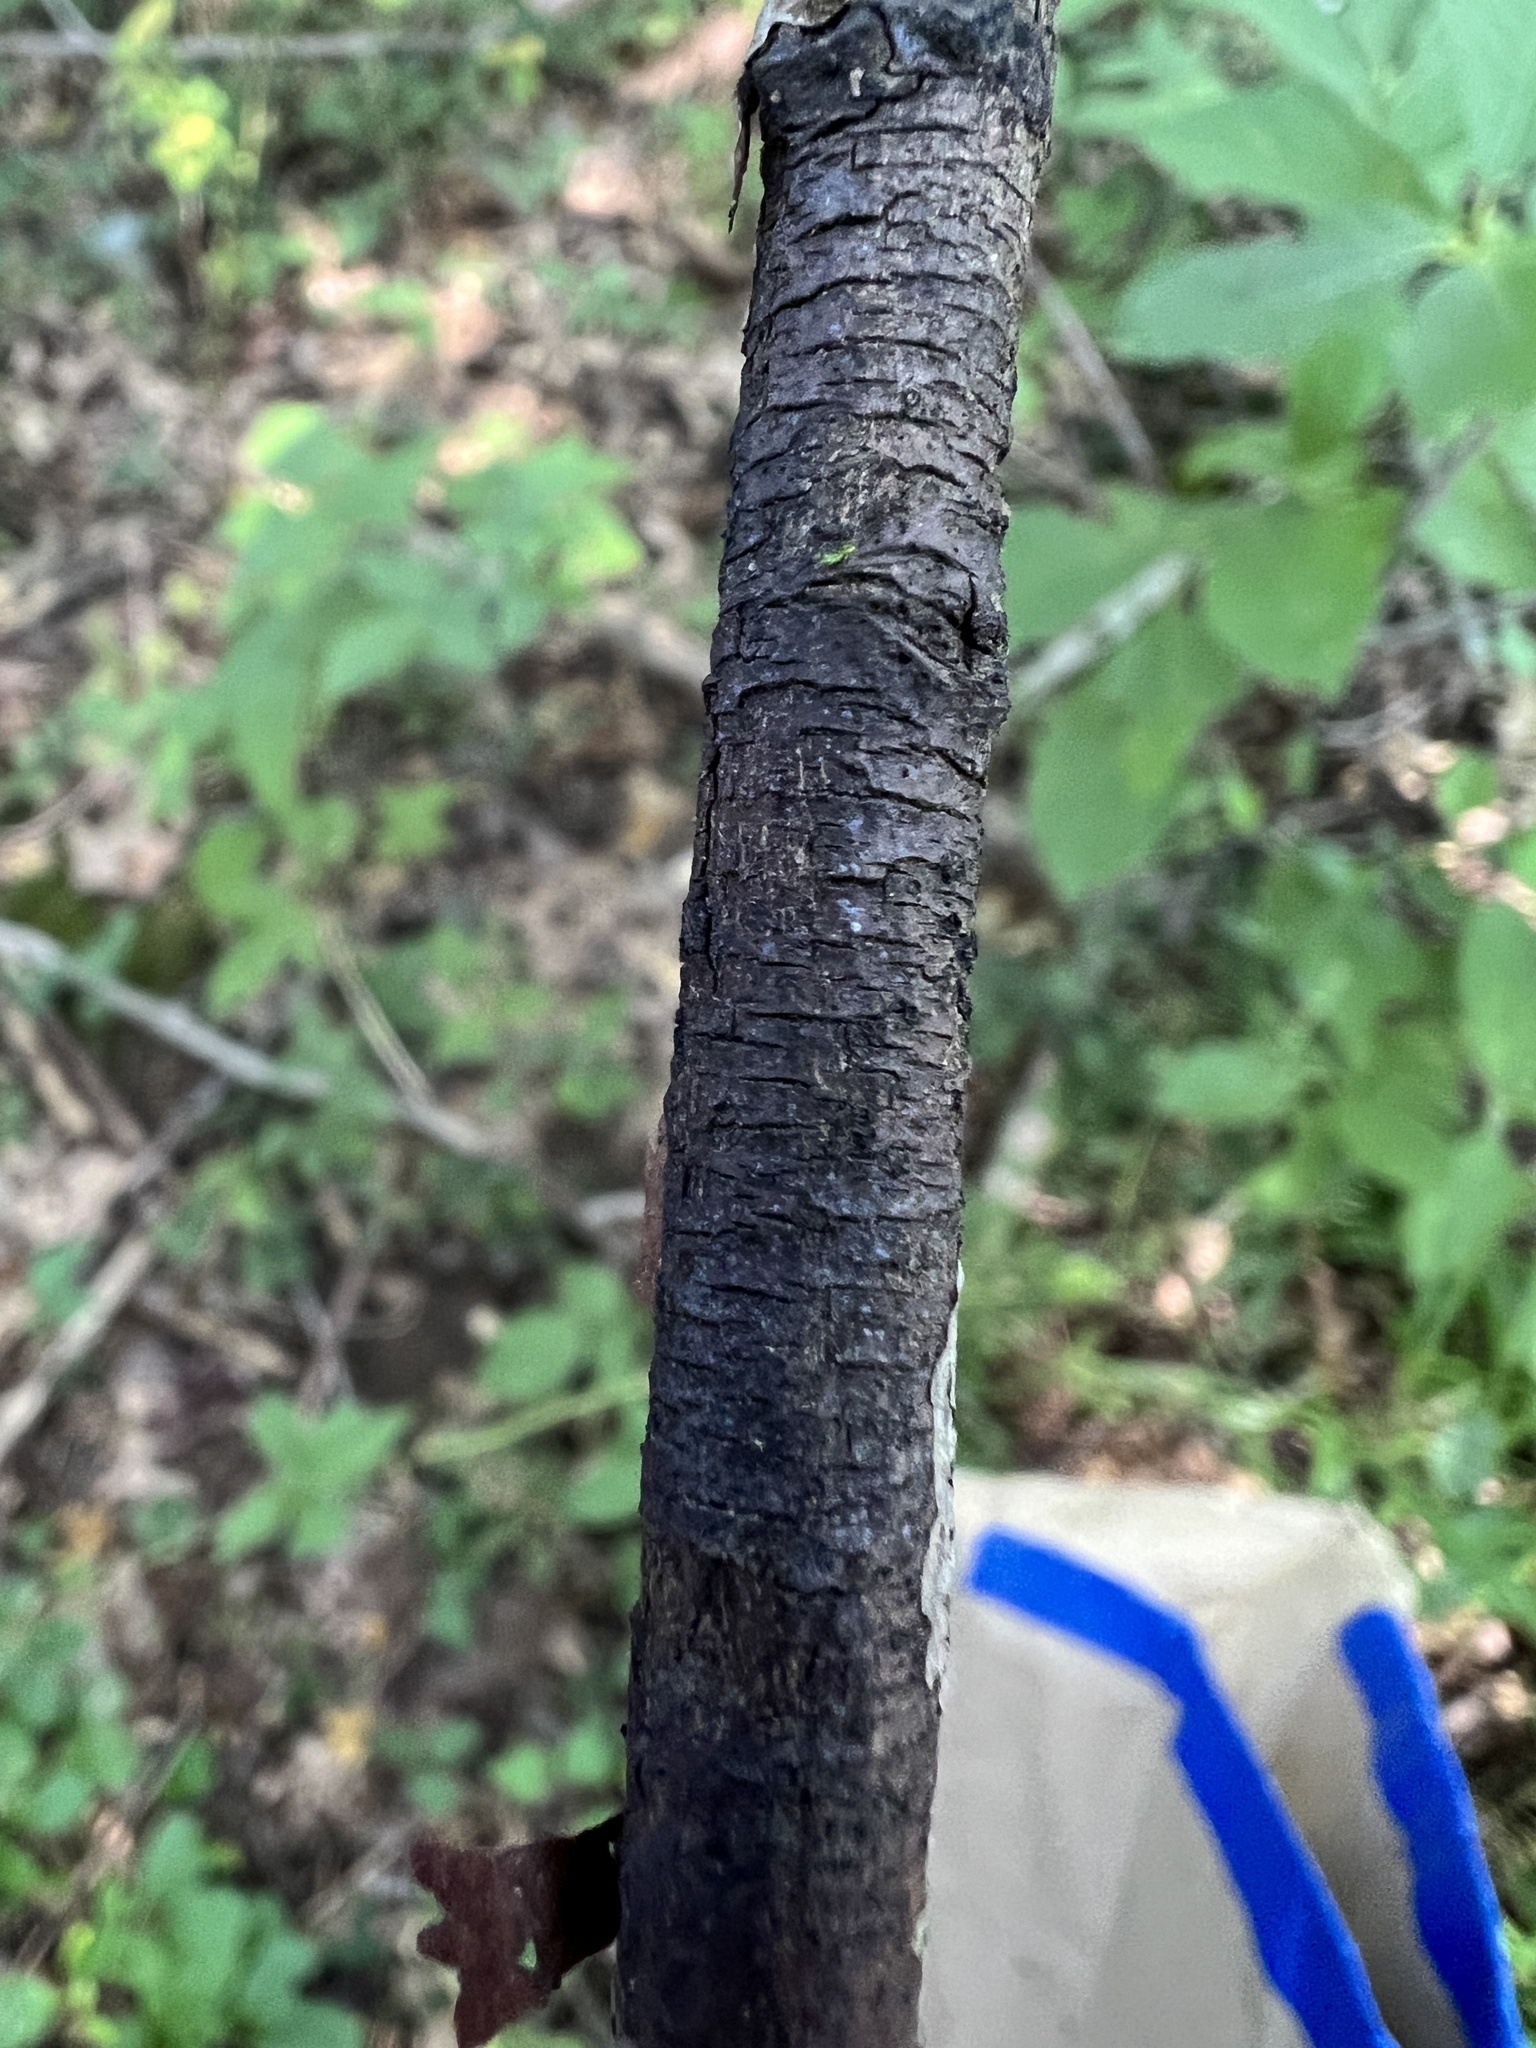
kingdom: Fungi
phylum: Ascomycota
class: Sordariomycetes
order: Xylariales
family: Diatrypaceae
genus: Diatrype
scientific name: Diatrype stigma
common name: Common tarcrust
